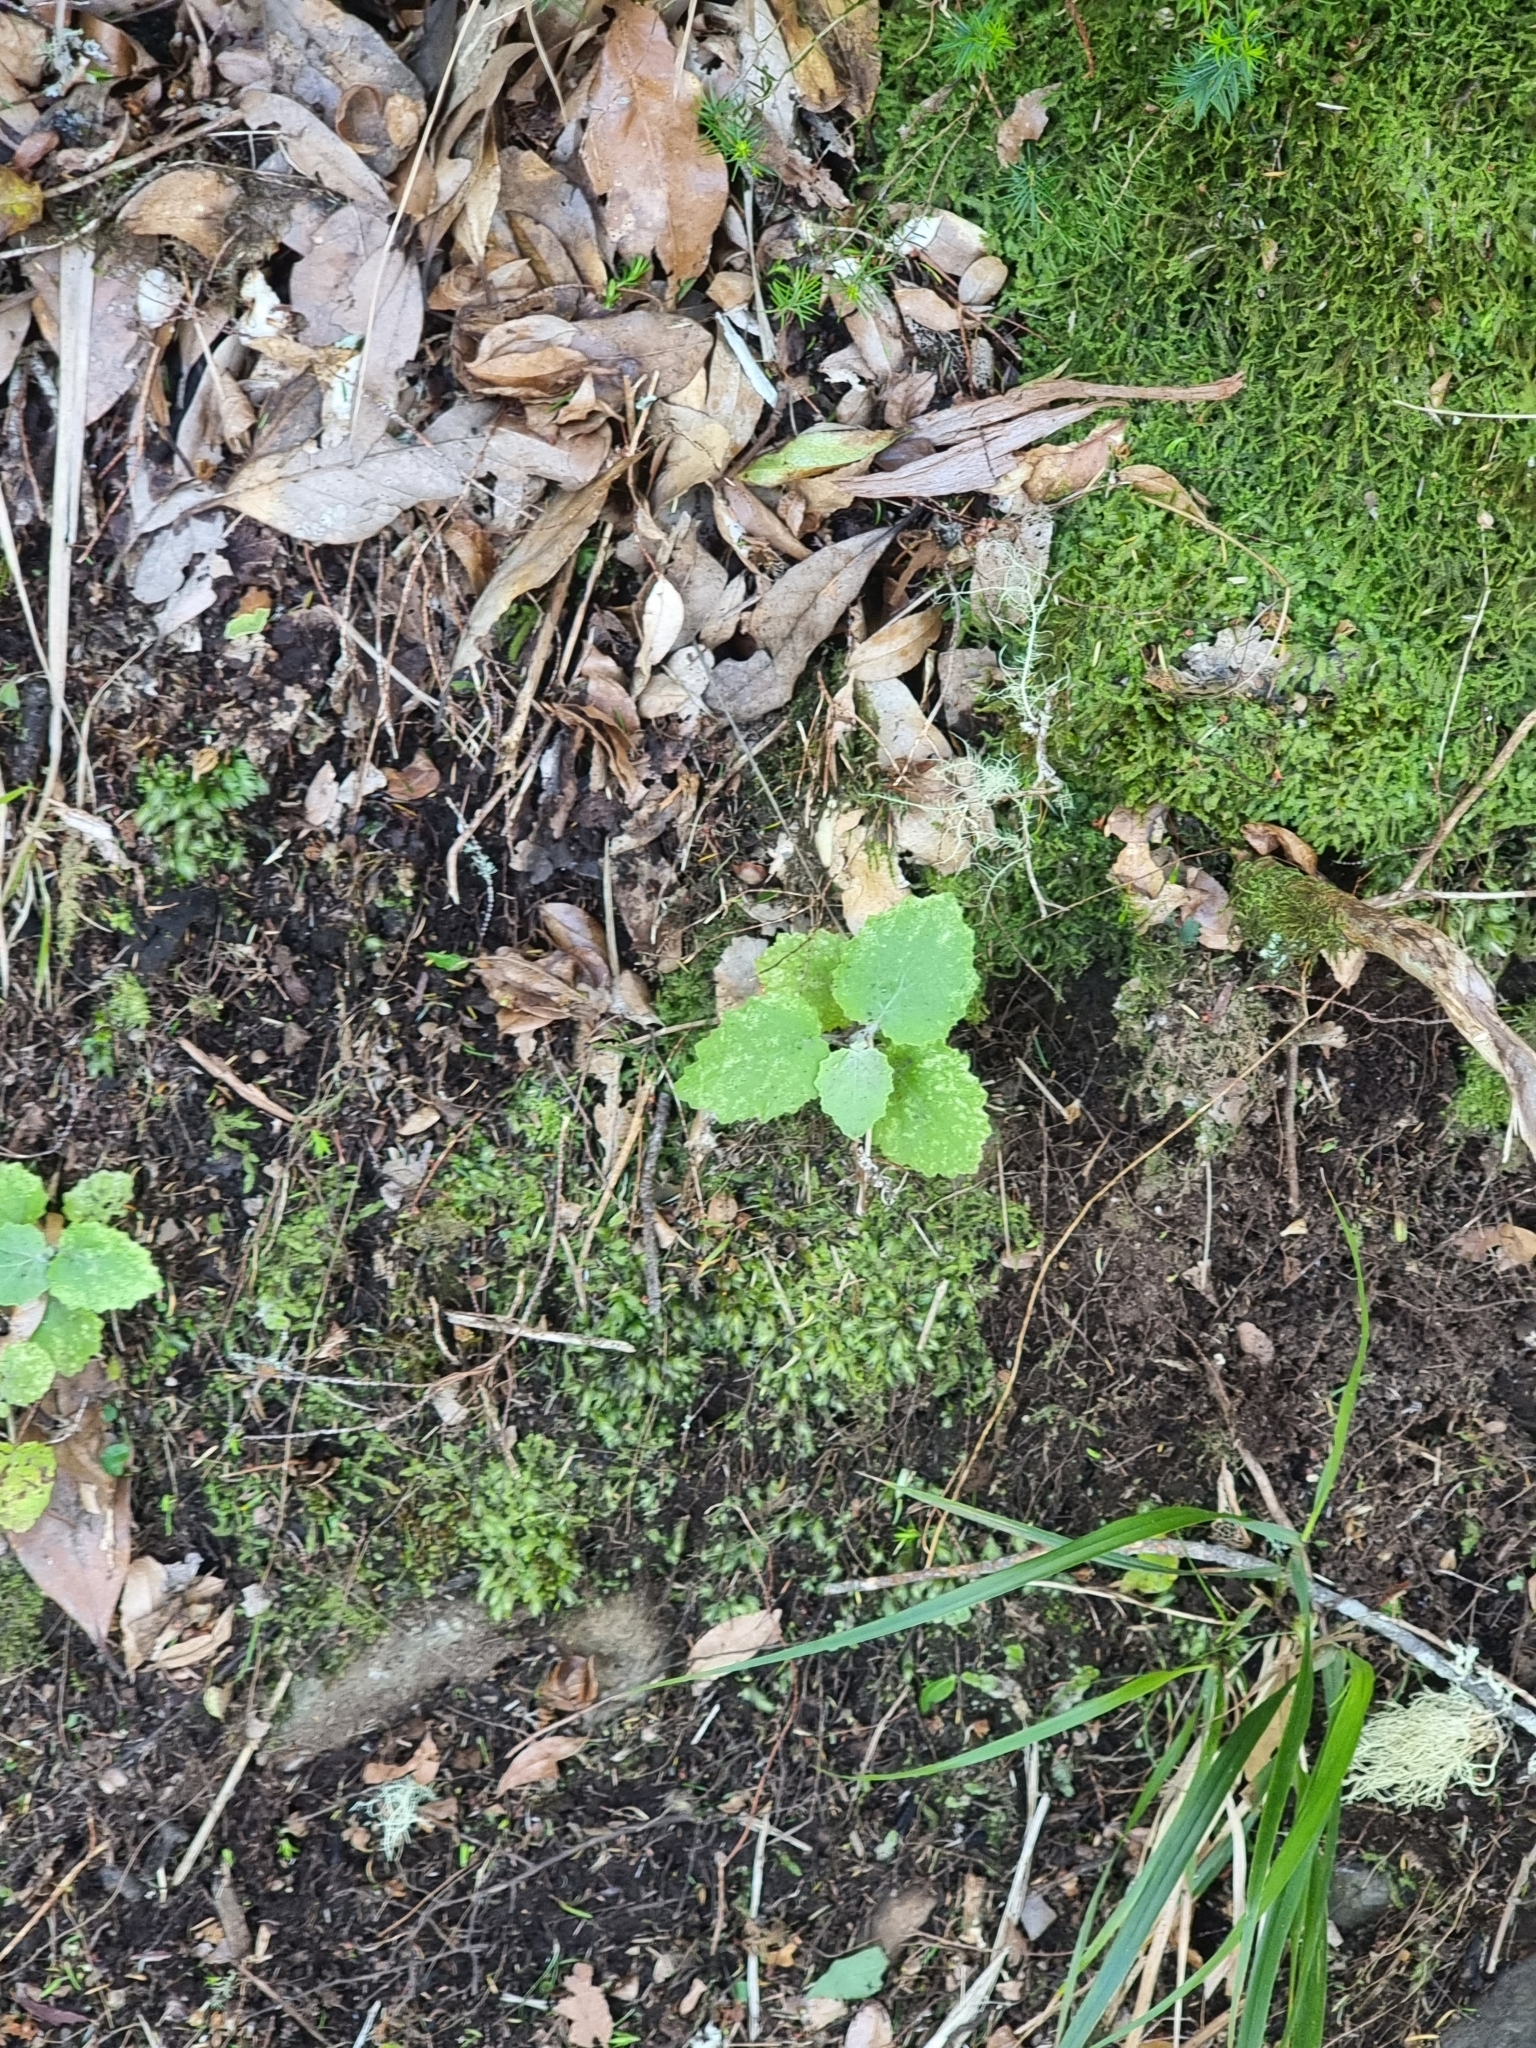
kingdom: Plantae
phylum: Tracheophyta
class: Magnoliopsida
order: Asterales
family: Asteraceae
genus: Pericallis
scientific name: Pericallis aurita
